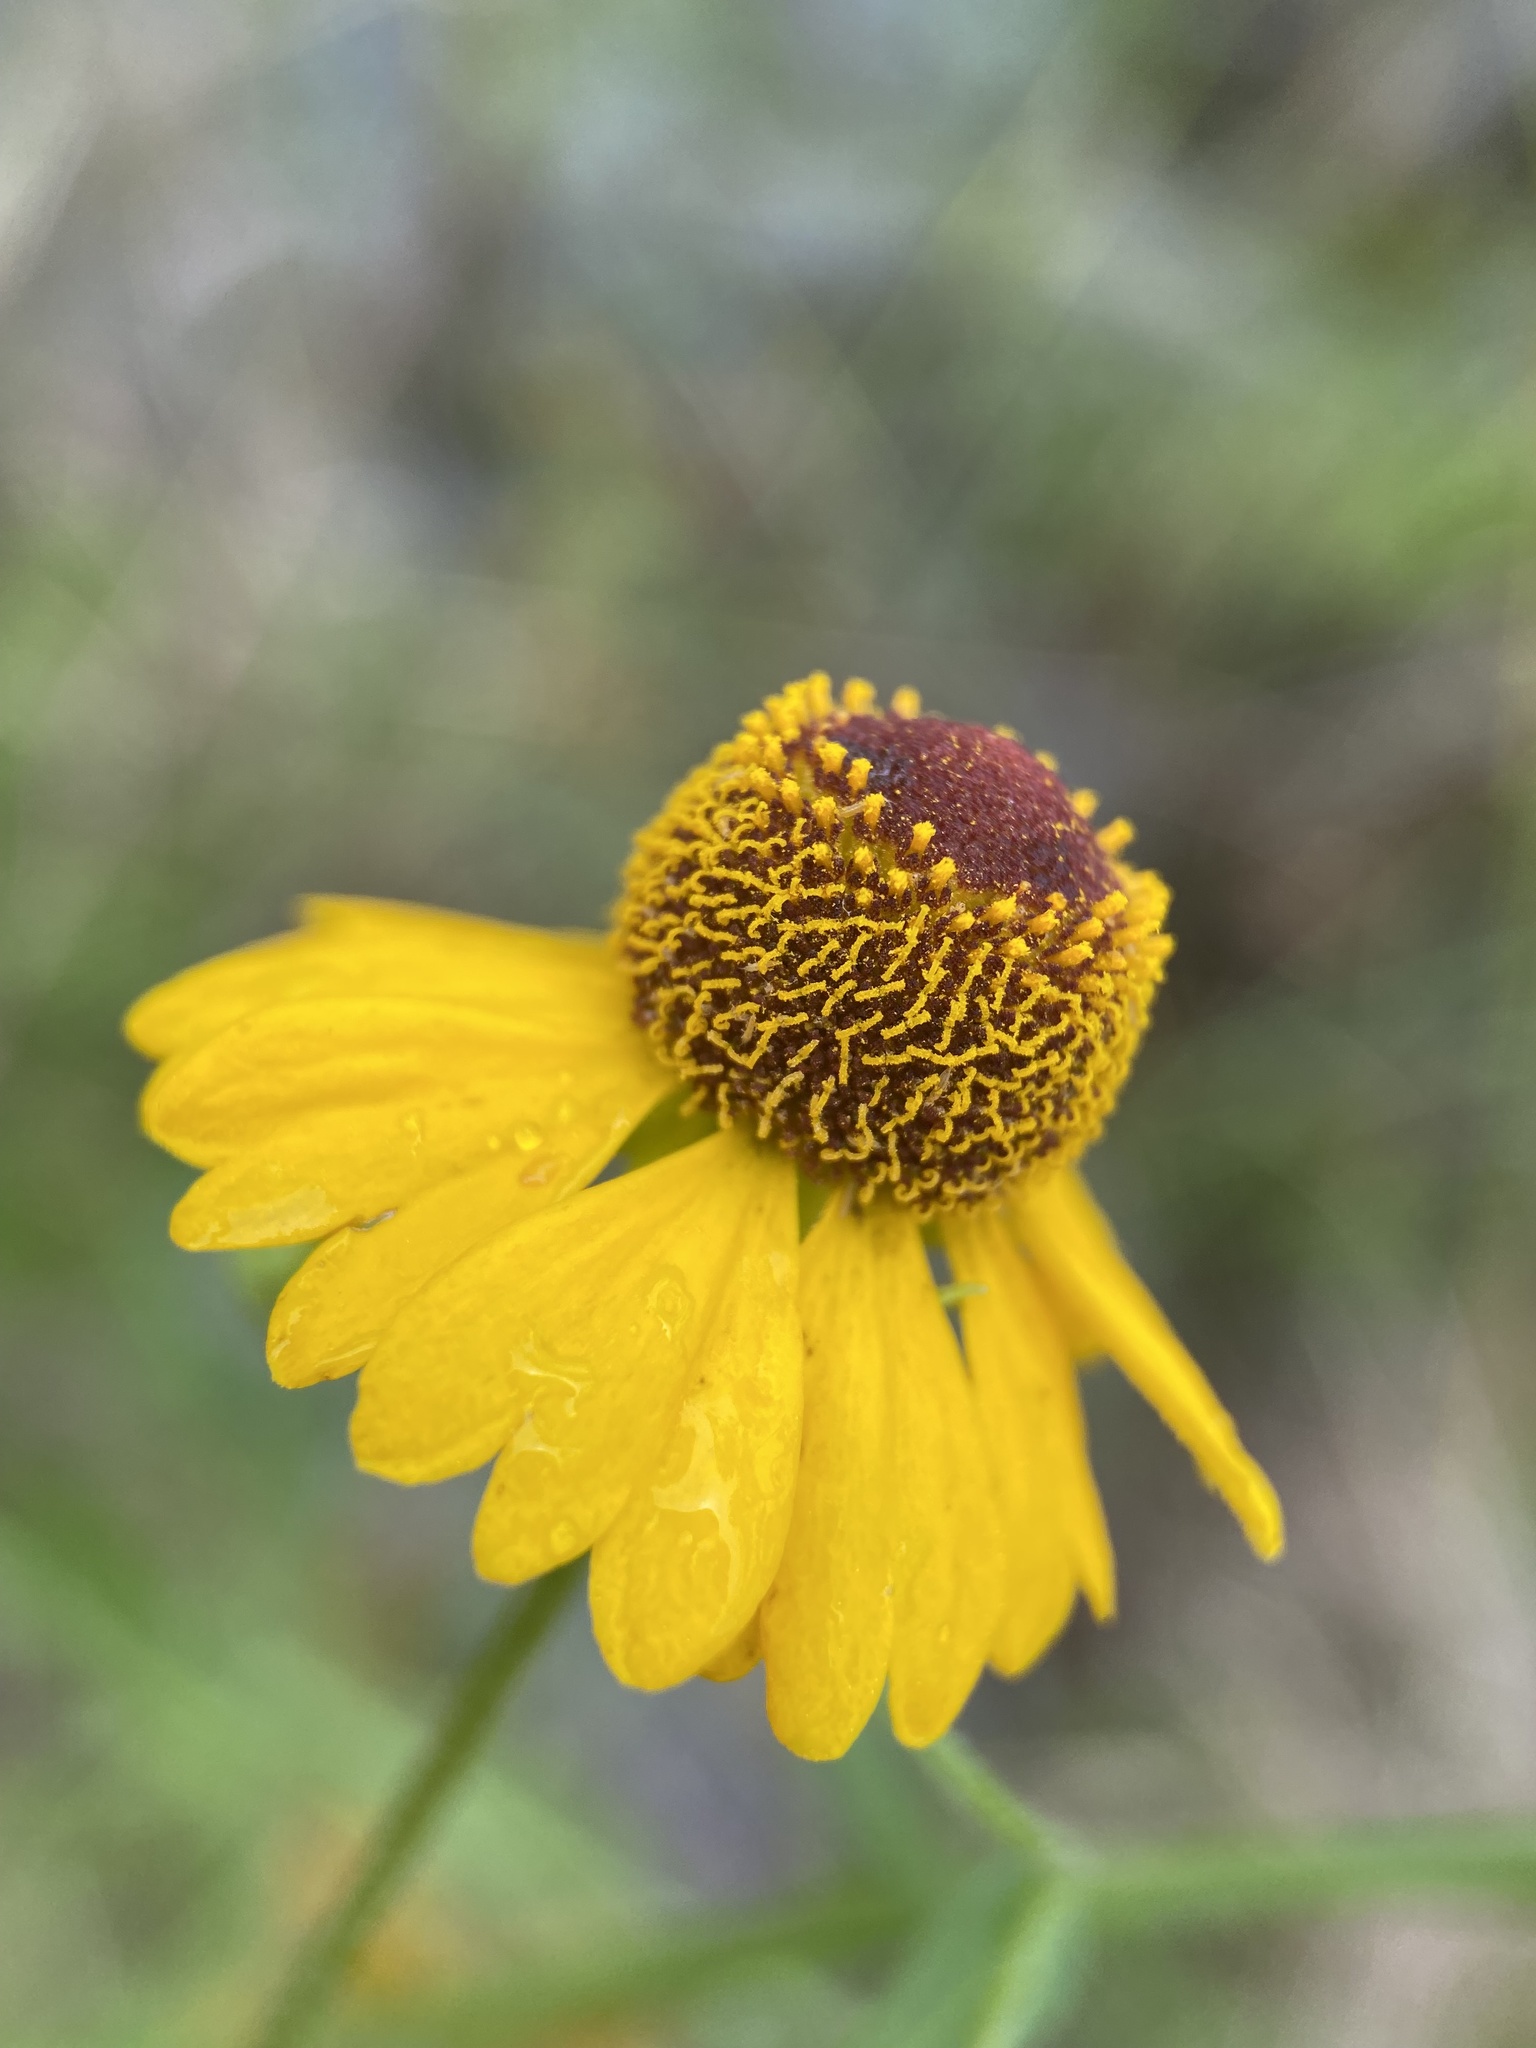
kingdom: Plantae
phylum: Tracheophyta
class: Magnoliopsida
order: Asterales
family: Asteraceae
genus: Helenium
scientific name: Helenium flexuosum
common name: Naked-flowered sneezeweed
